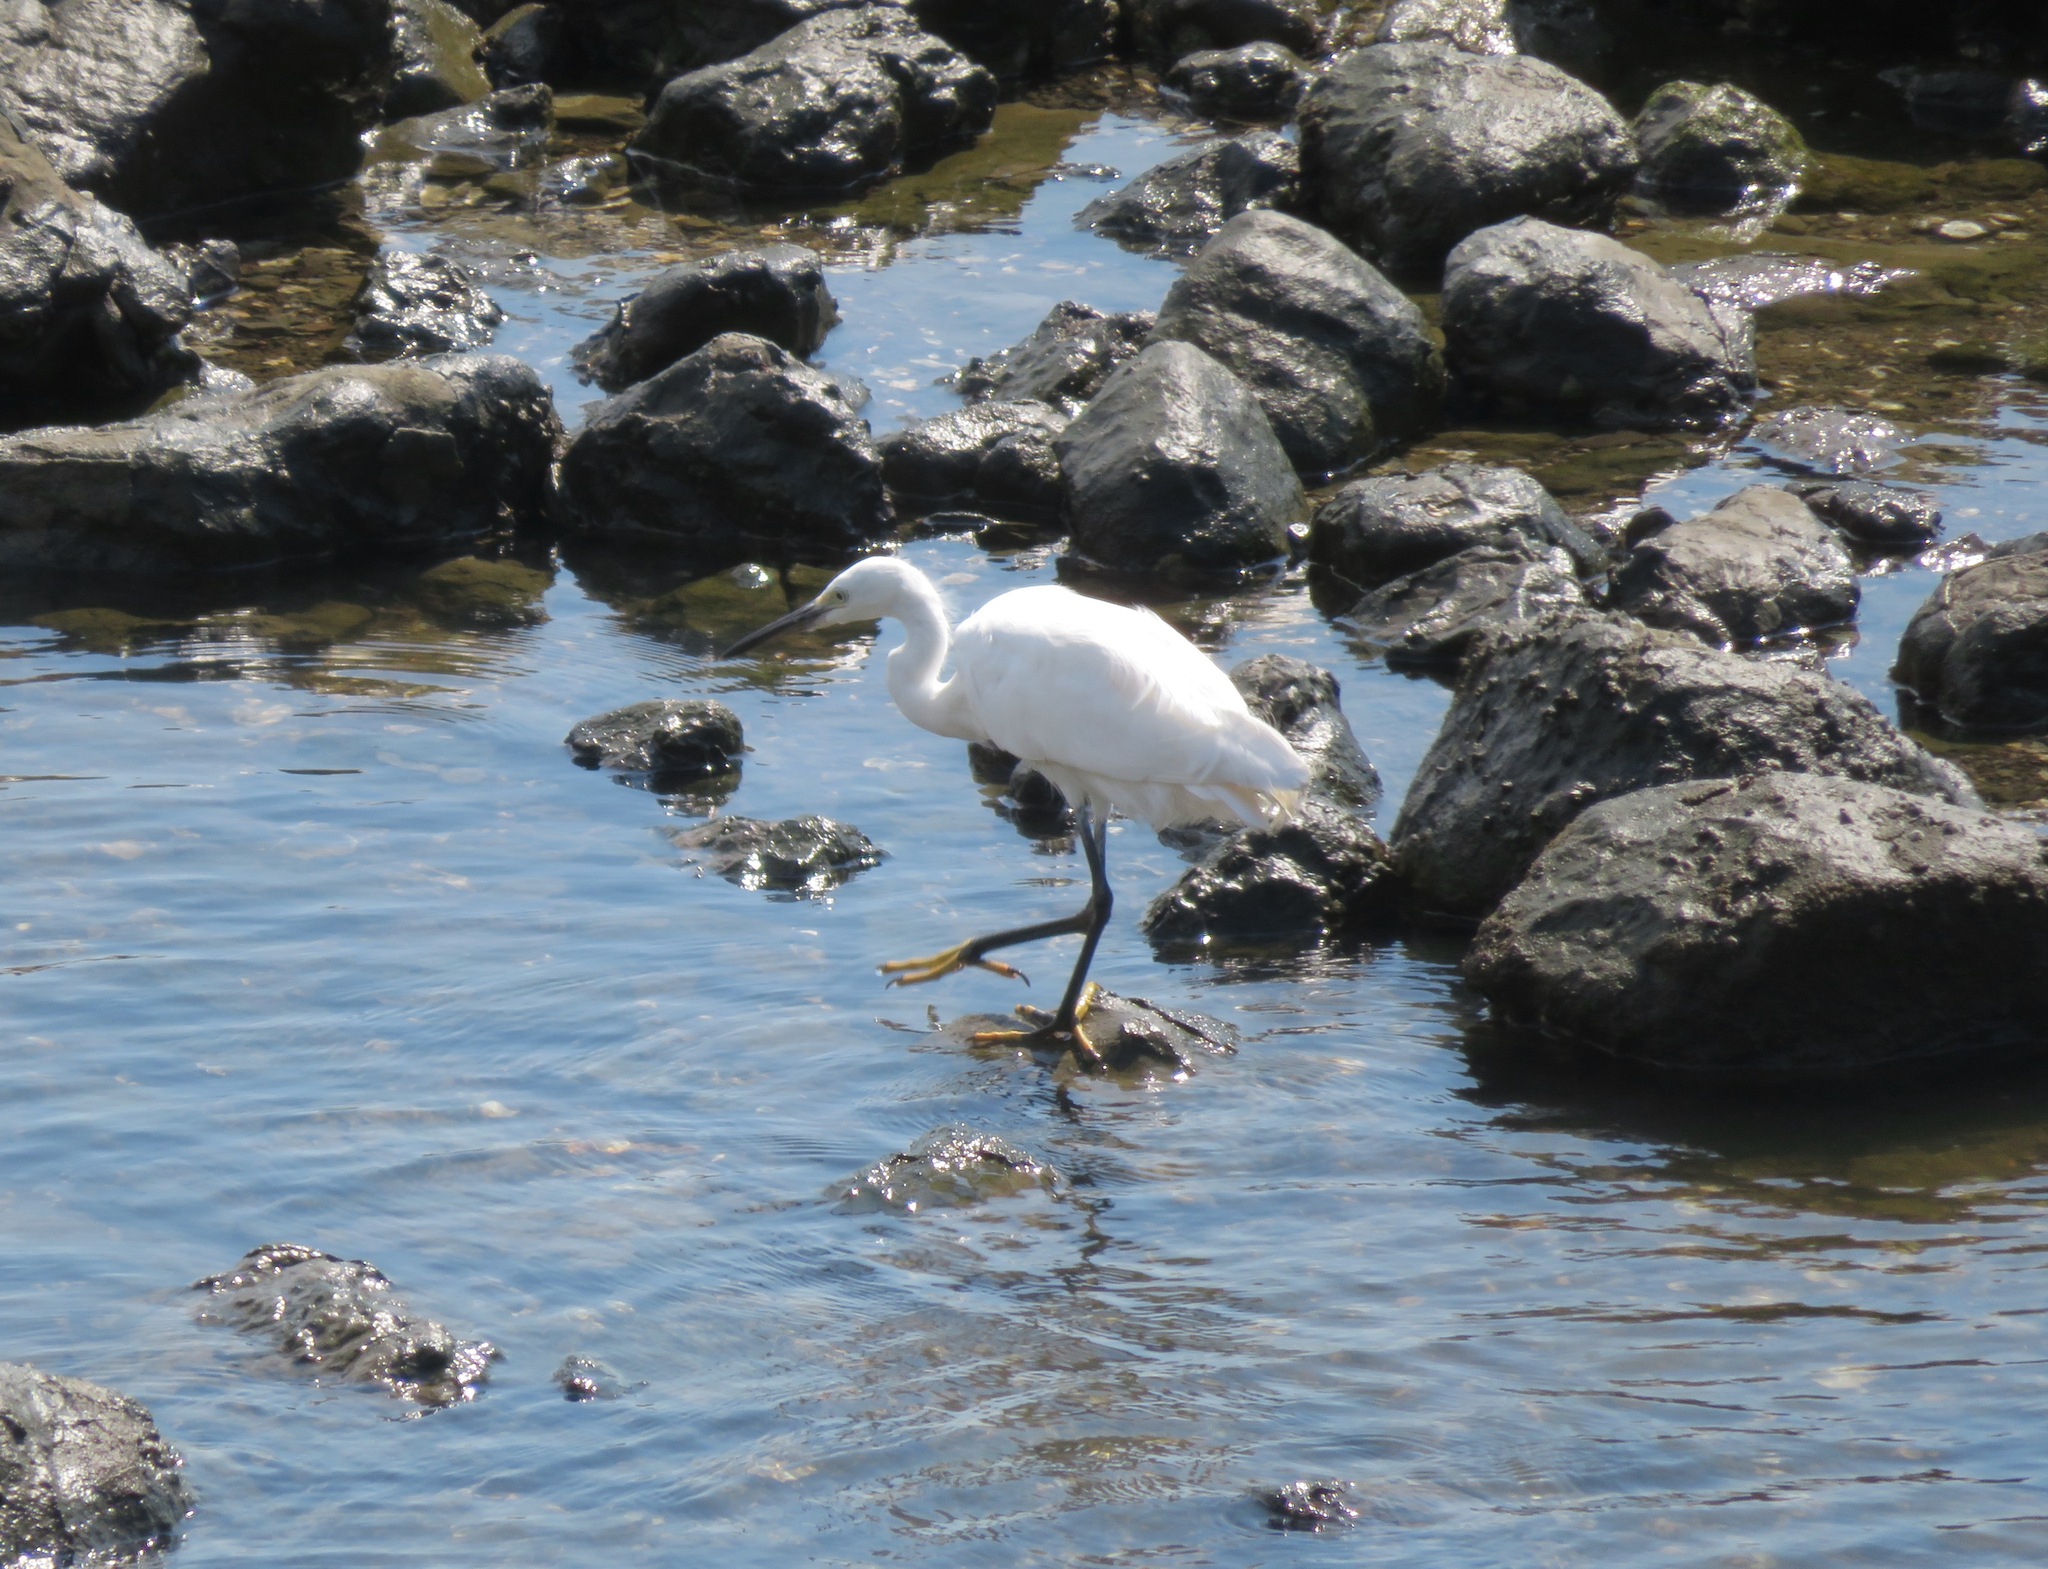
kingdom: Animalia
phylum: Chordata
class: Aves
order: Pelecaniformes
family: Ardeidae
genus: Egretta
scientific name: Egretta garzetta
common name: Little egret
